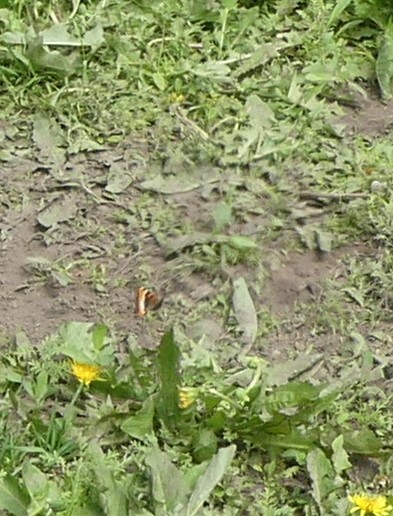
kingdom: Animalia
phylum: Arthropoda
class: Insecta
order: Lepidoptera
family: Nymphalidae
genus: Aglais
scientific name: Aglais milberti
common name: Milbert's tortoiseshell
